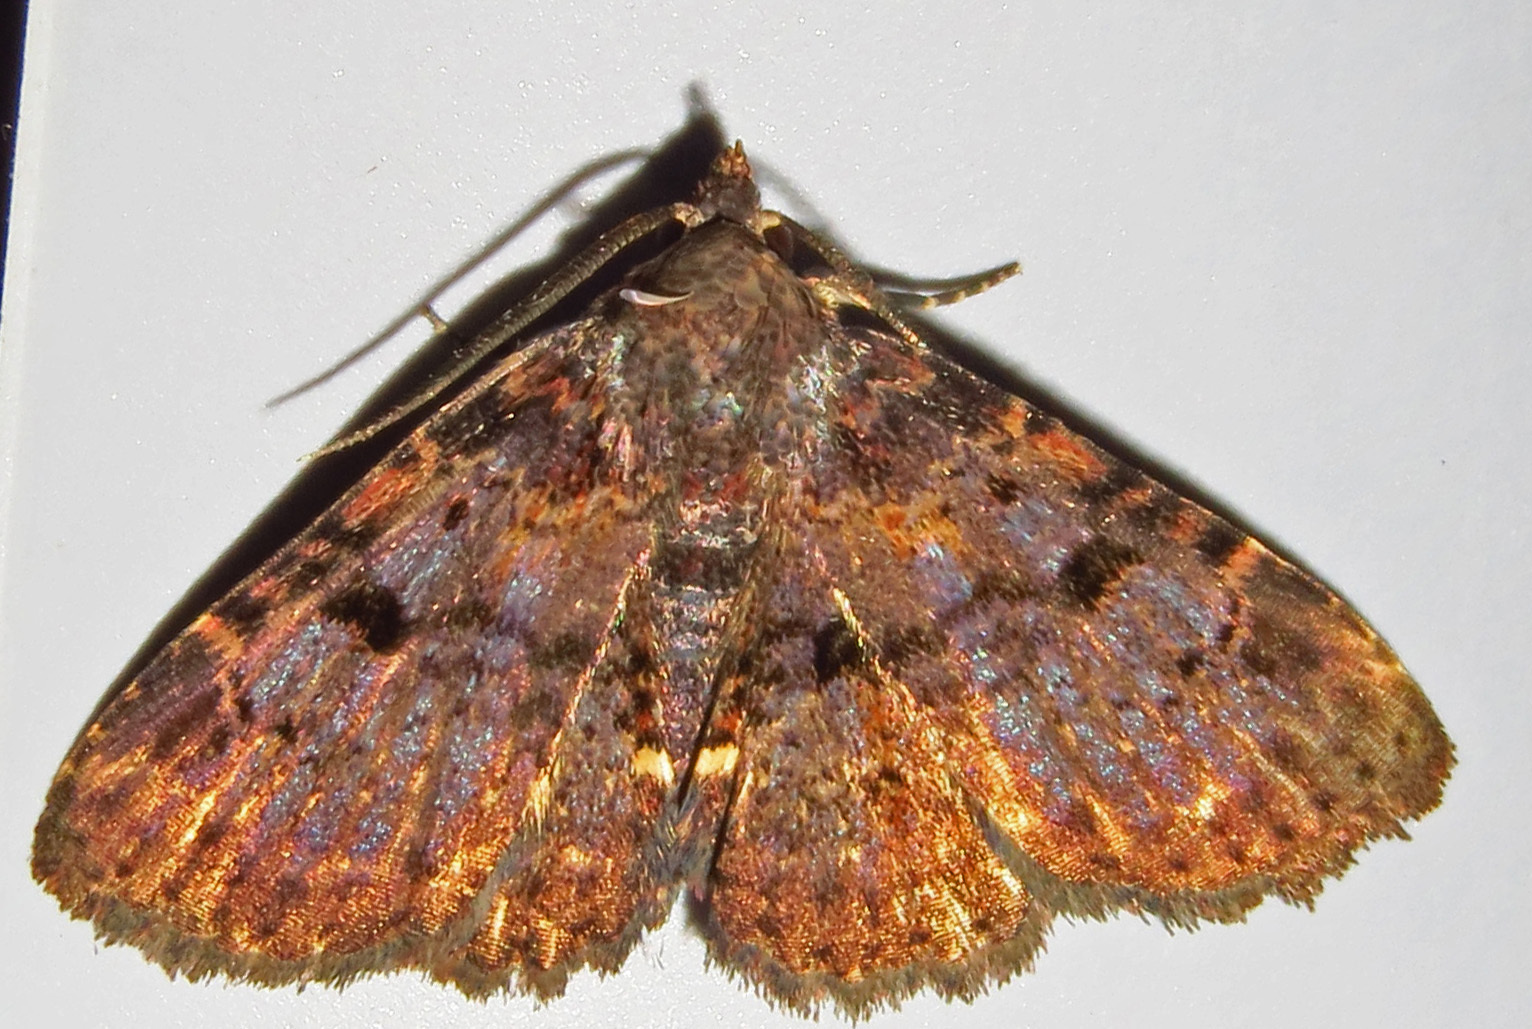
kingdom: Animalia
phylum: Arthropoda
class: Insecta
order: Lepidoptera
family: Erebidae
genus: Metalectra
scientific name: Metalectra quadrisignata
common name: Four-spotted fungus moth
